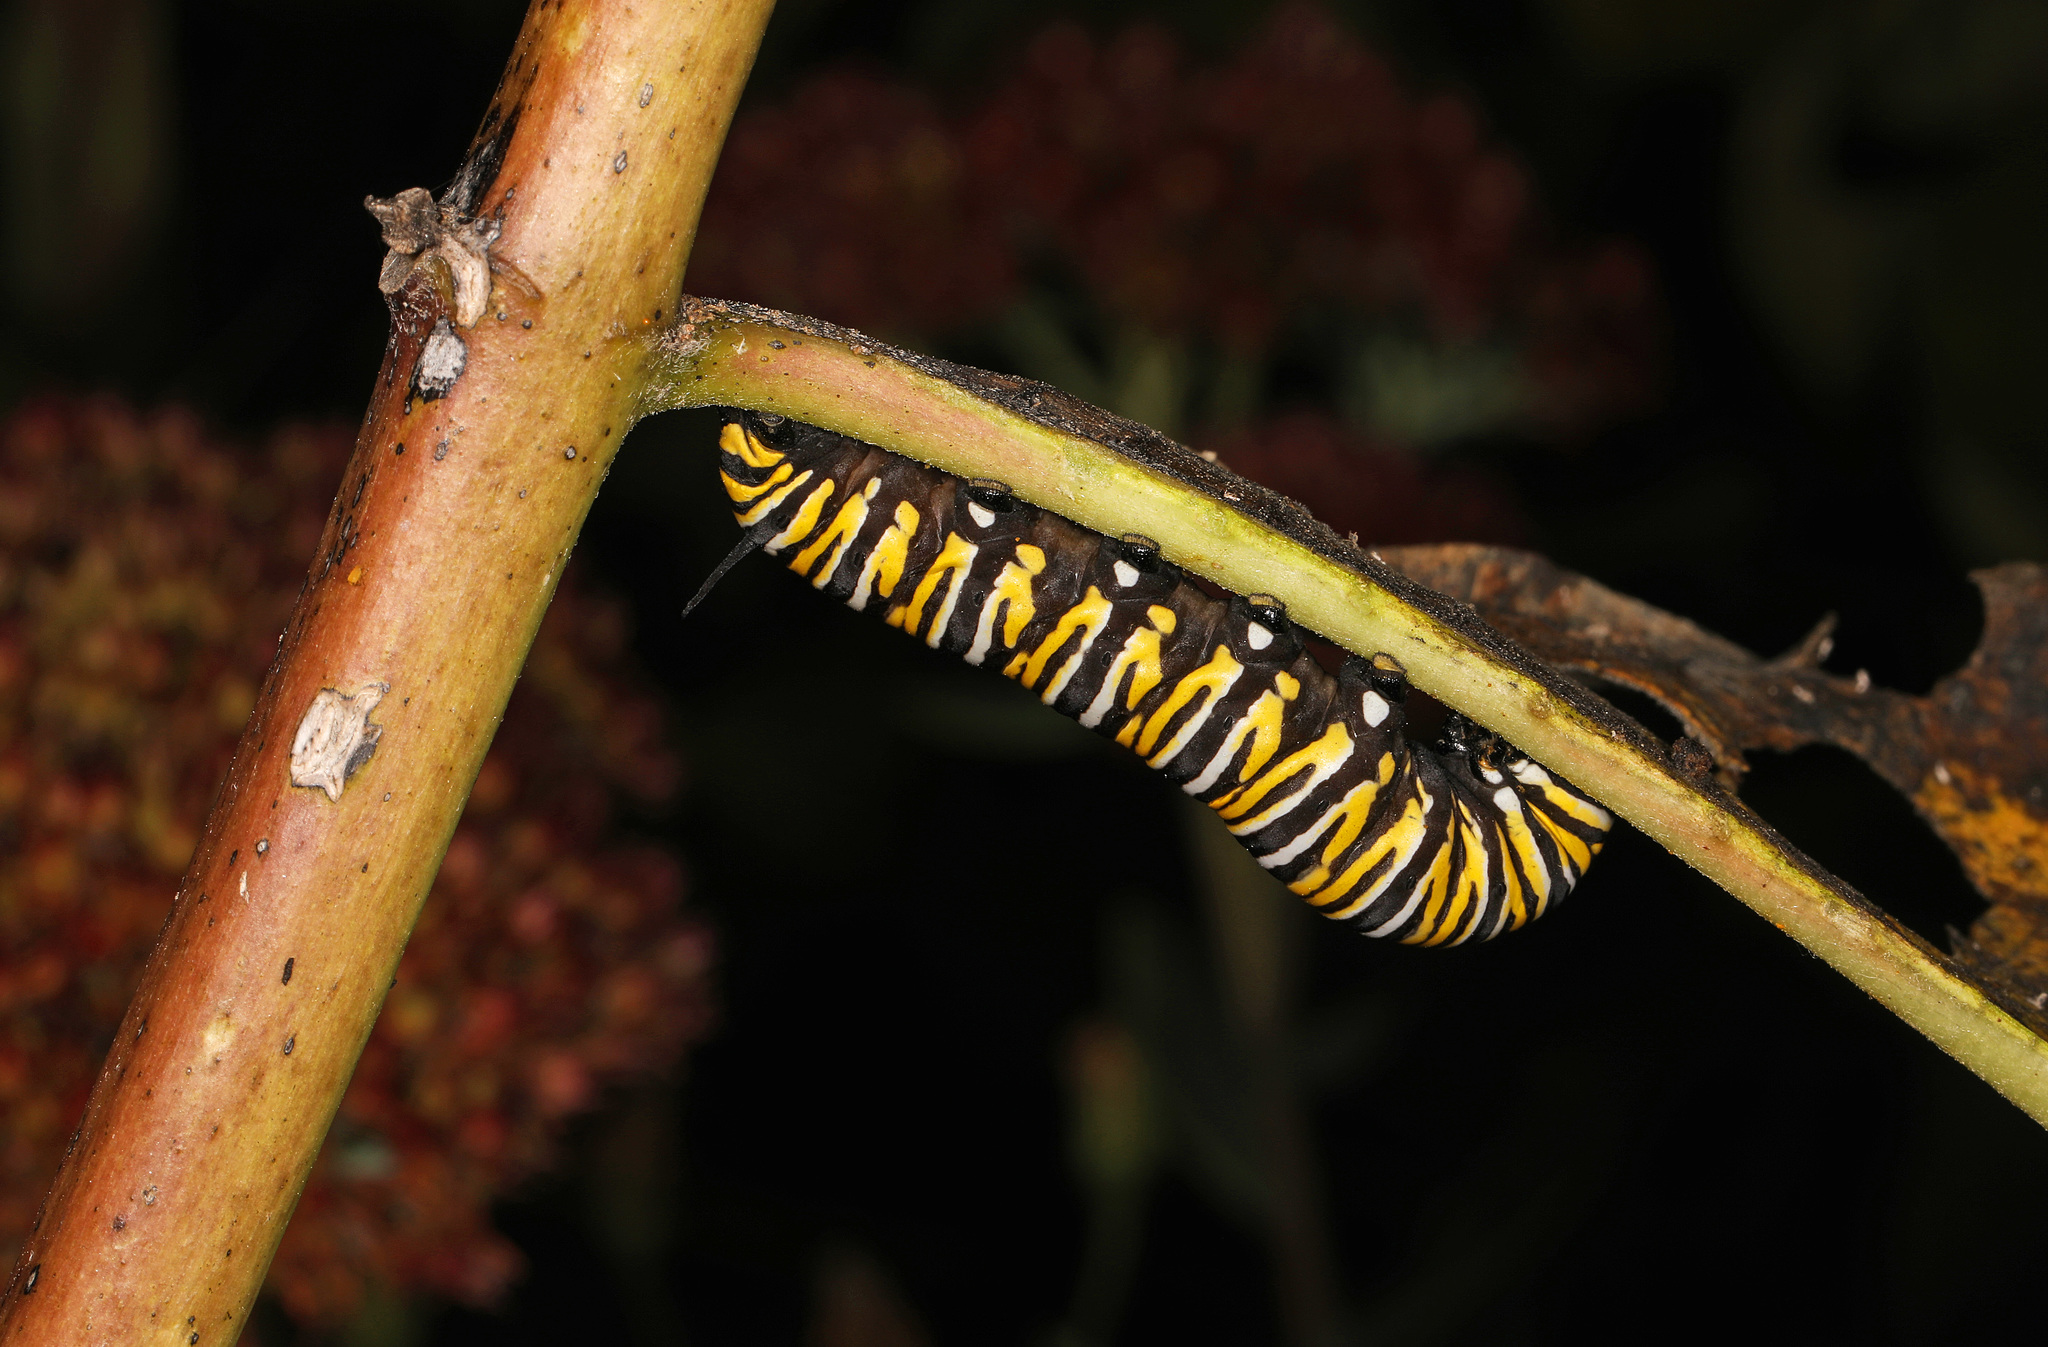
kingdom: Animalia
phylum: Arthropoda
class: Insecta
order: Lepidoptera
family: Nymphalidae
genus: Danaus
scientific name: Danaus plexippus
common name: Monarch
